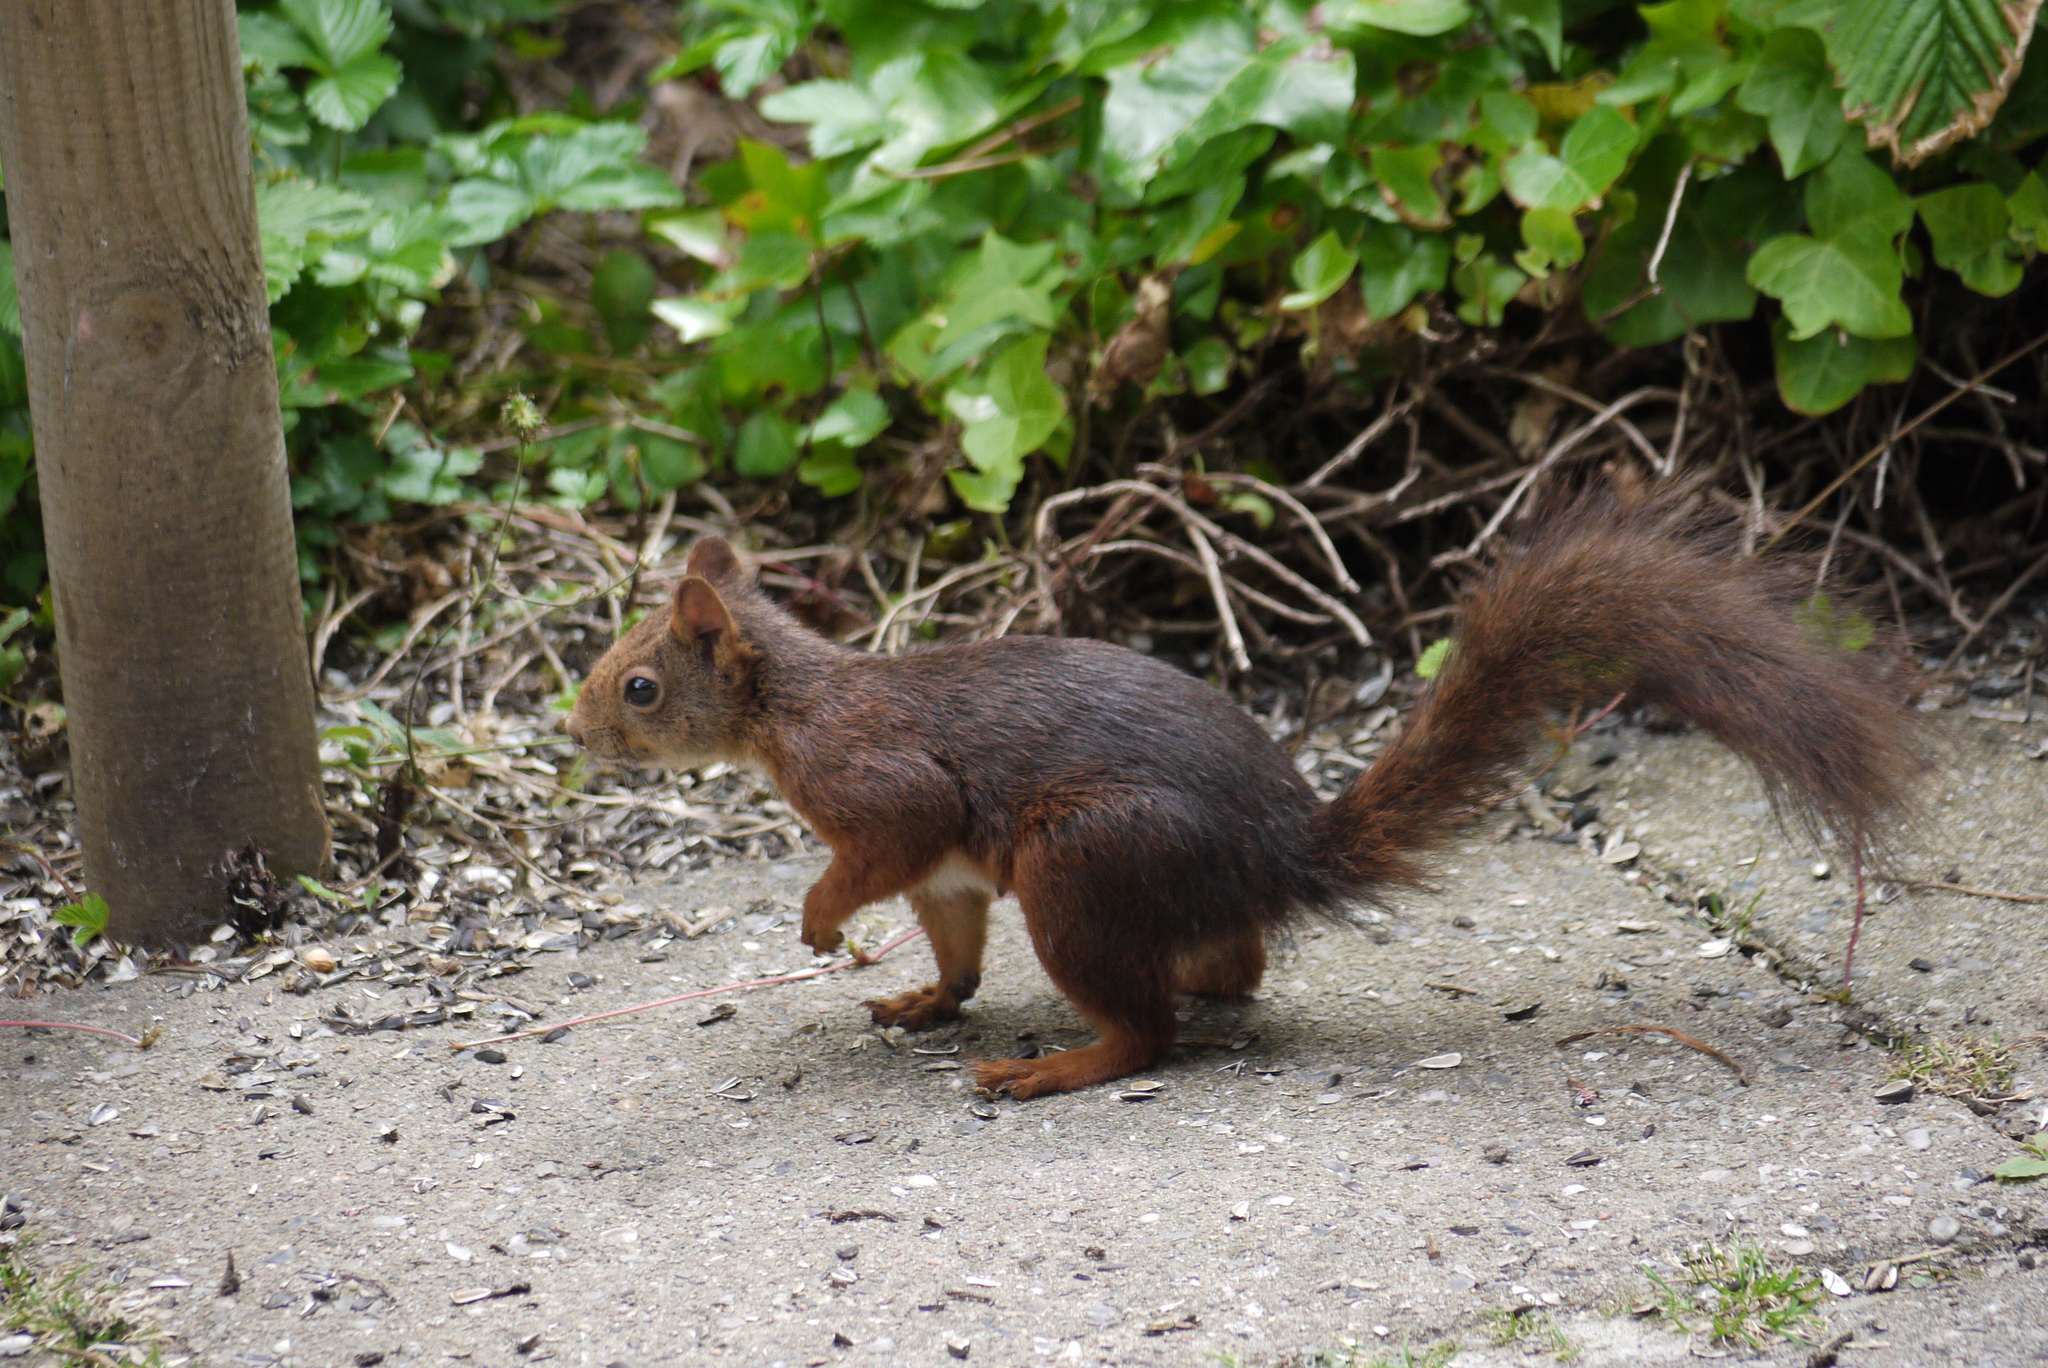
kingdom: Animalia
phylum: Chordata
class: Mammalia
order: Rodentia
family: Sciuridae
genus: Sciurus
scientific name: Sciurus vulgaris
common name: Eurasian red squirrel
